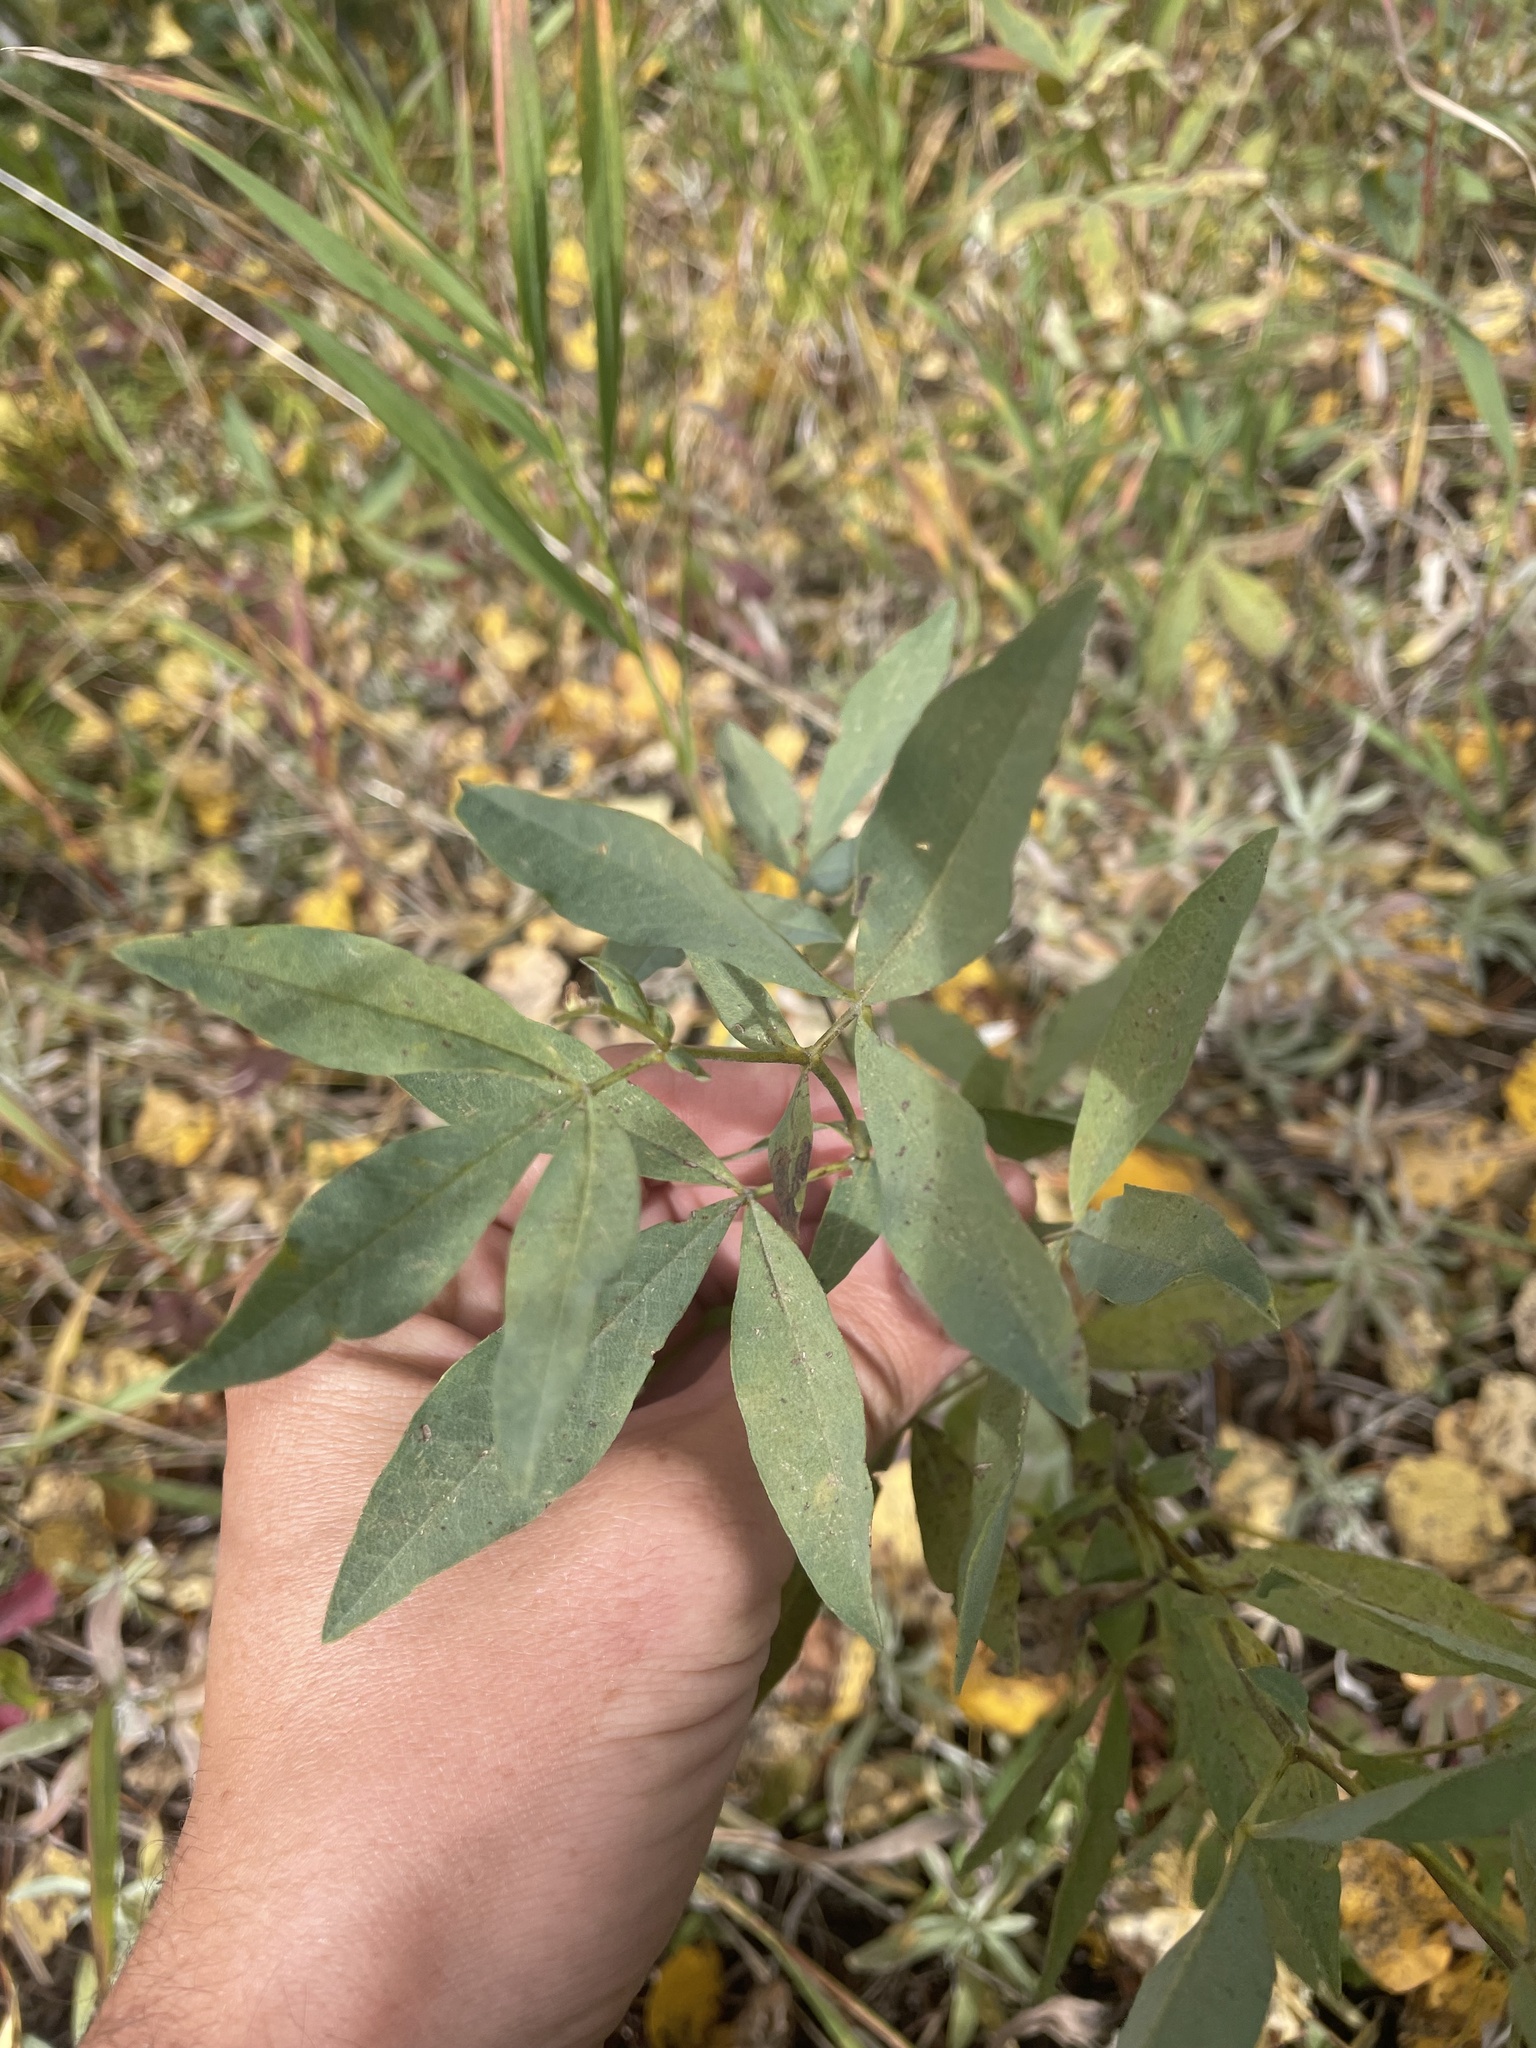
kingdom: Plantae
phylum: Tracheophyta
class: Magnoliopsida
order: Fabales
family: Fabaceae
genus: Thermopsis
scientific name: Thermopsis rhombifolia
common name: Circle-pod-pea
